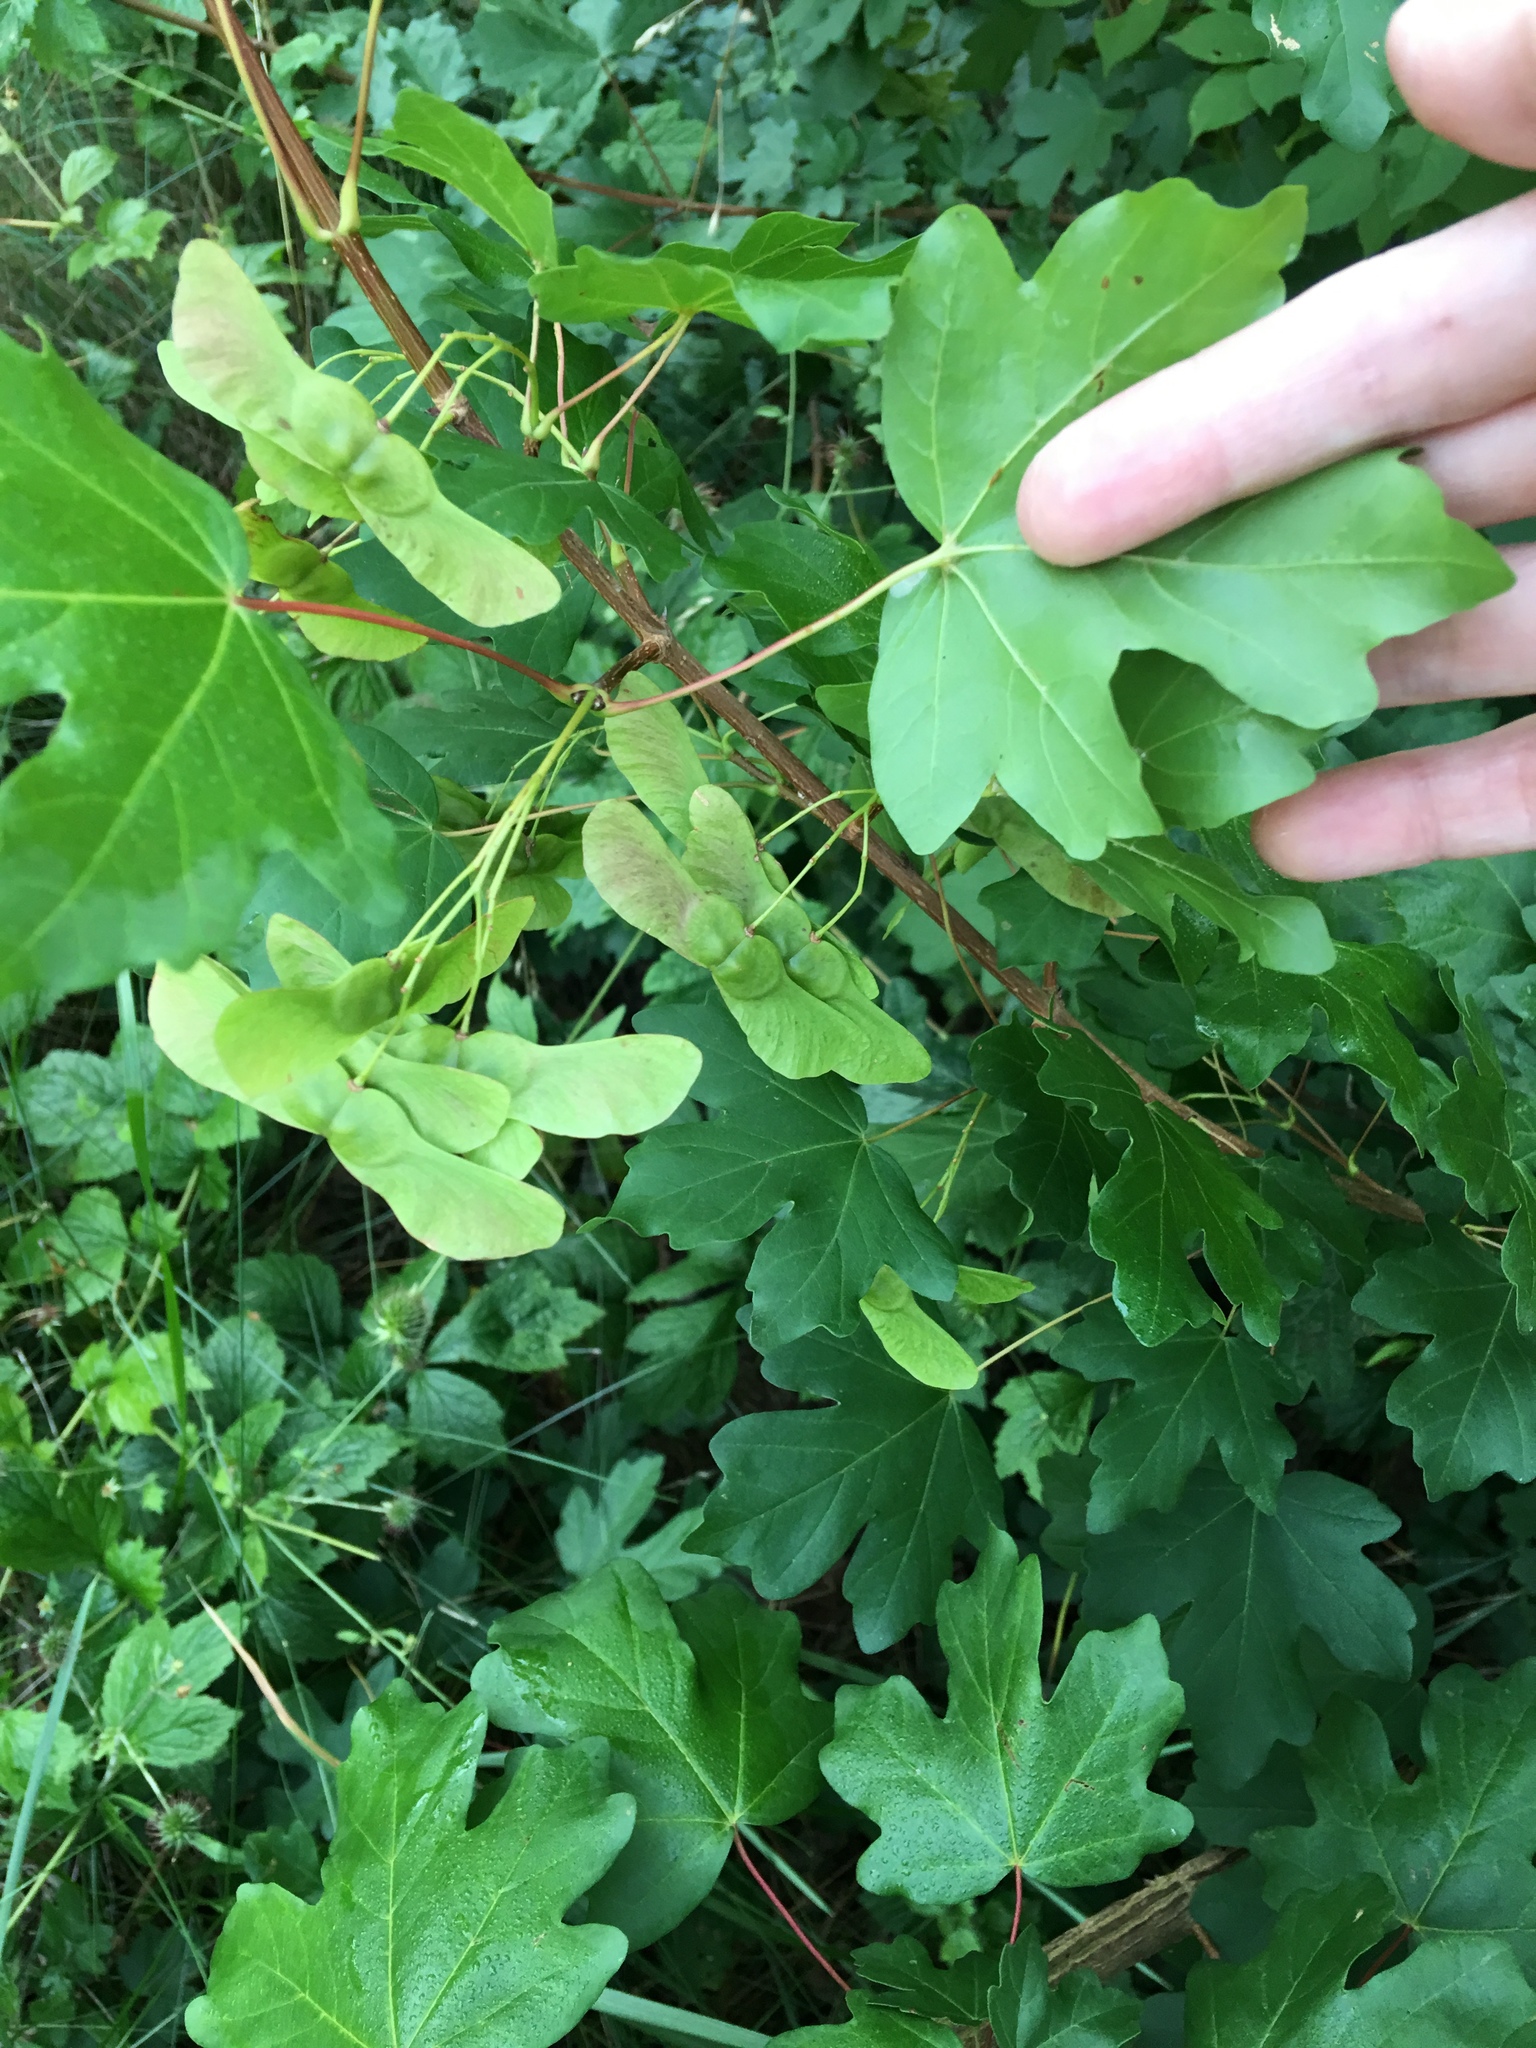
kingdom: Plantae
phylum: Tracheophyta
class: Magnoliopsida
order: Sapindales
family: Sapindaceae
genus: Acer
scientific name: Acer campestre
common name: Field maple
